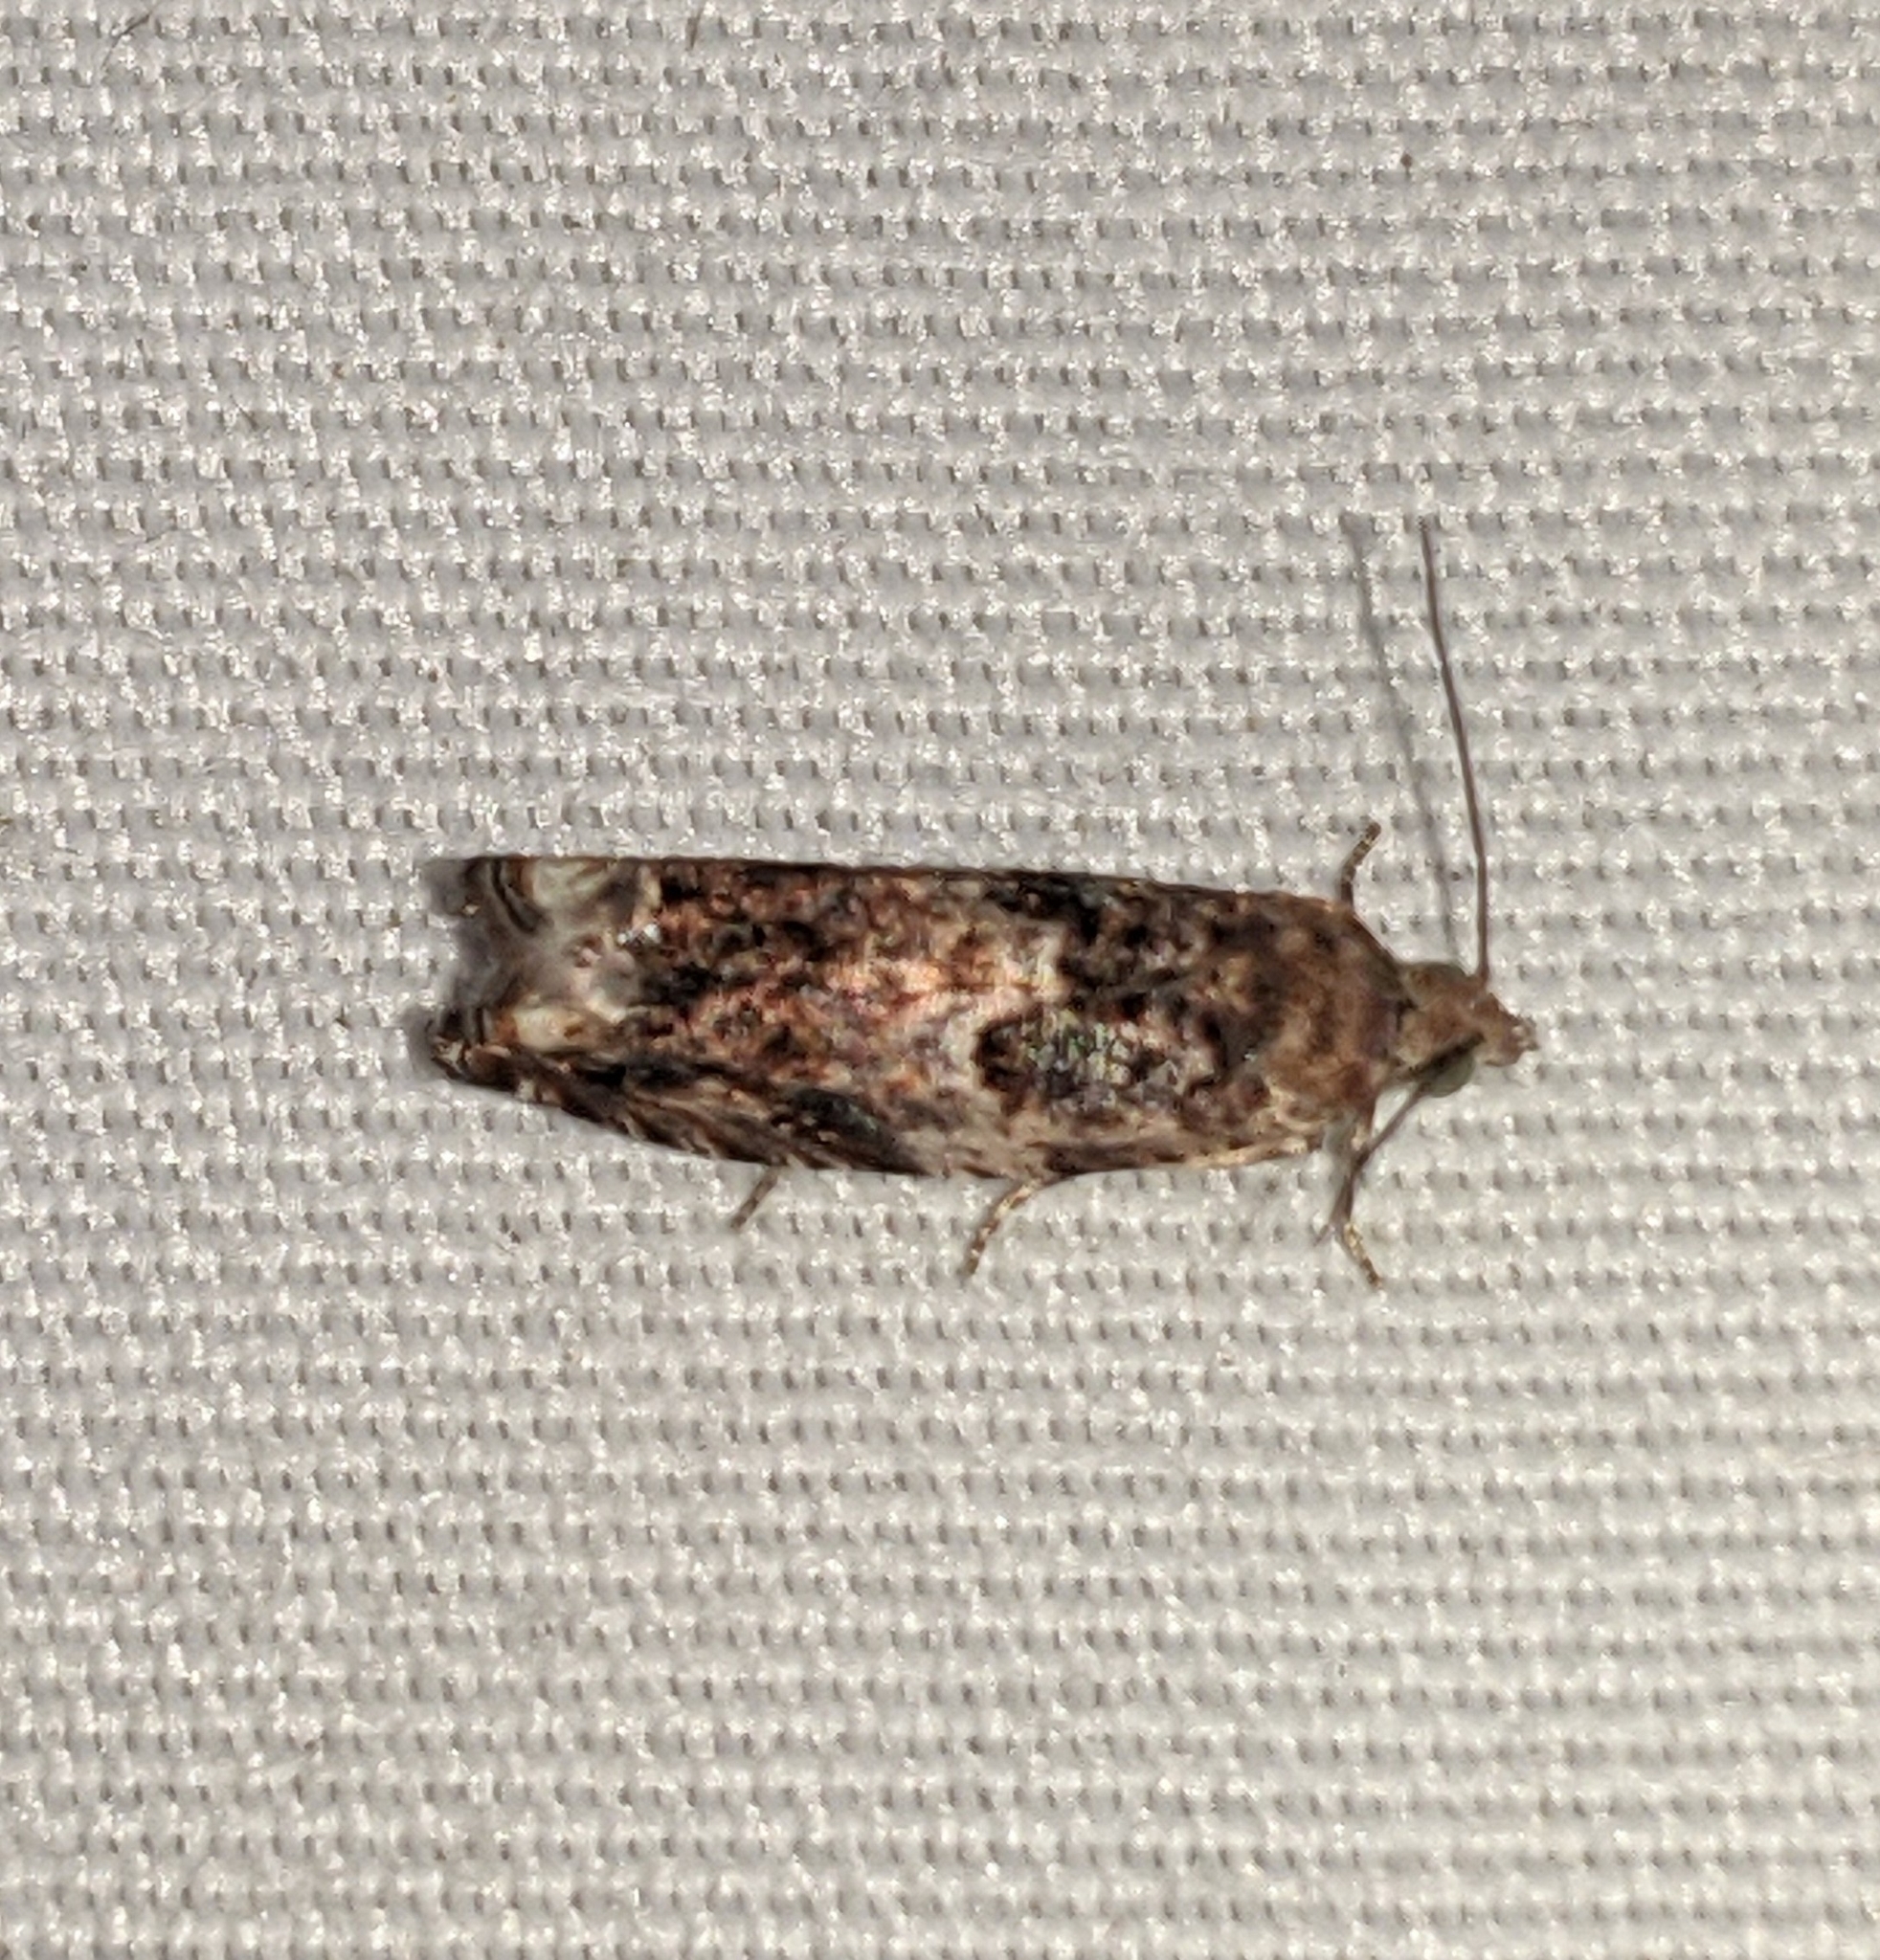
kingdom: Animalia
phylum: Arthropoda
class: Insecta
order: Lepidoptera
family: Tortricidae
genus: Epinotia
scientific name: Epinotia albangulana
